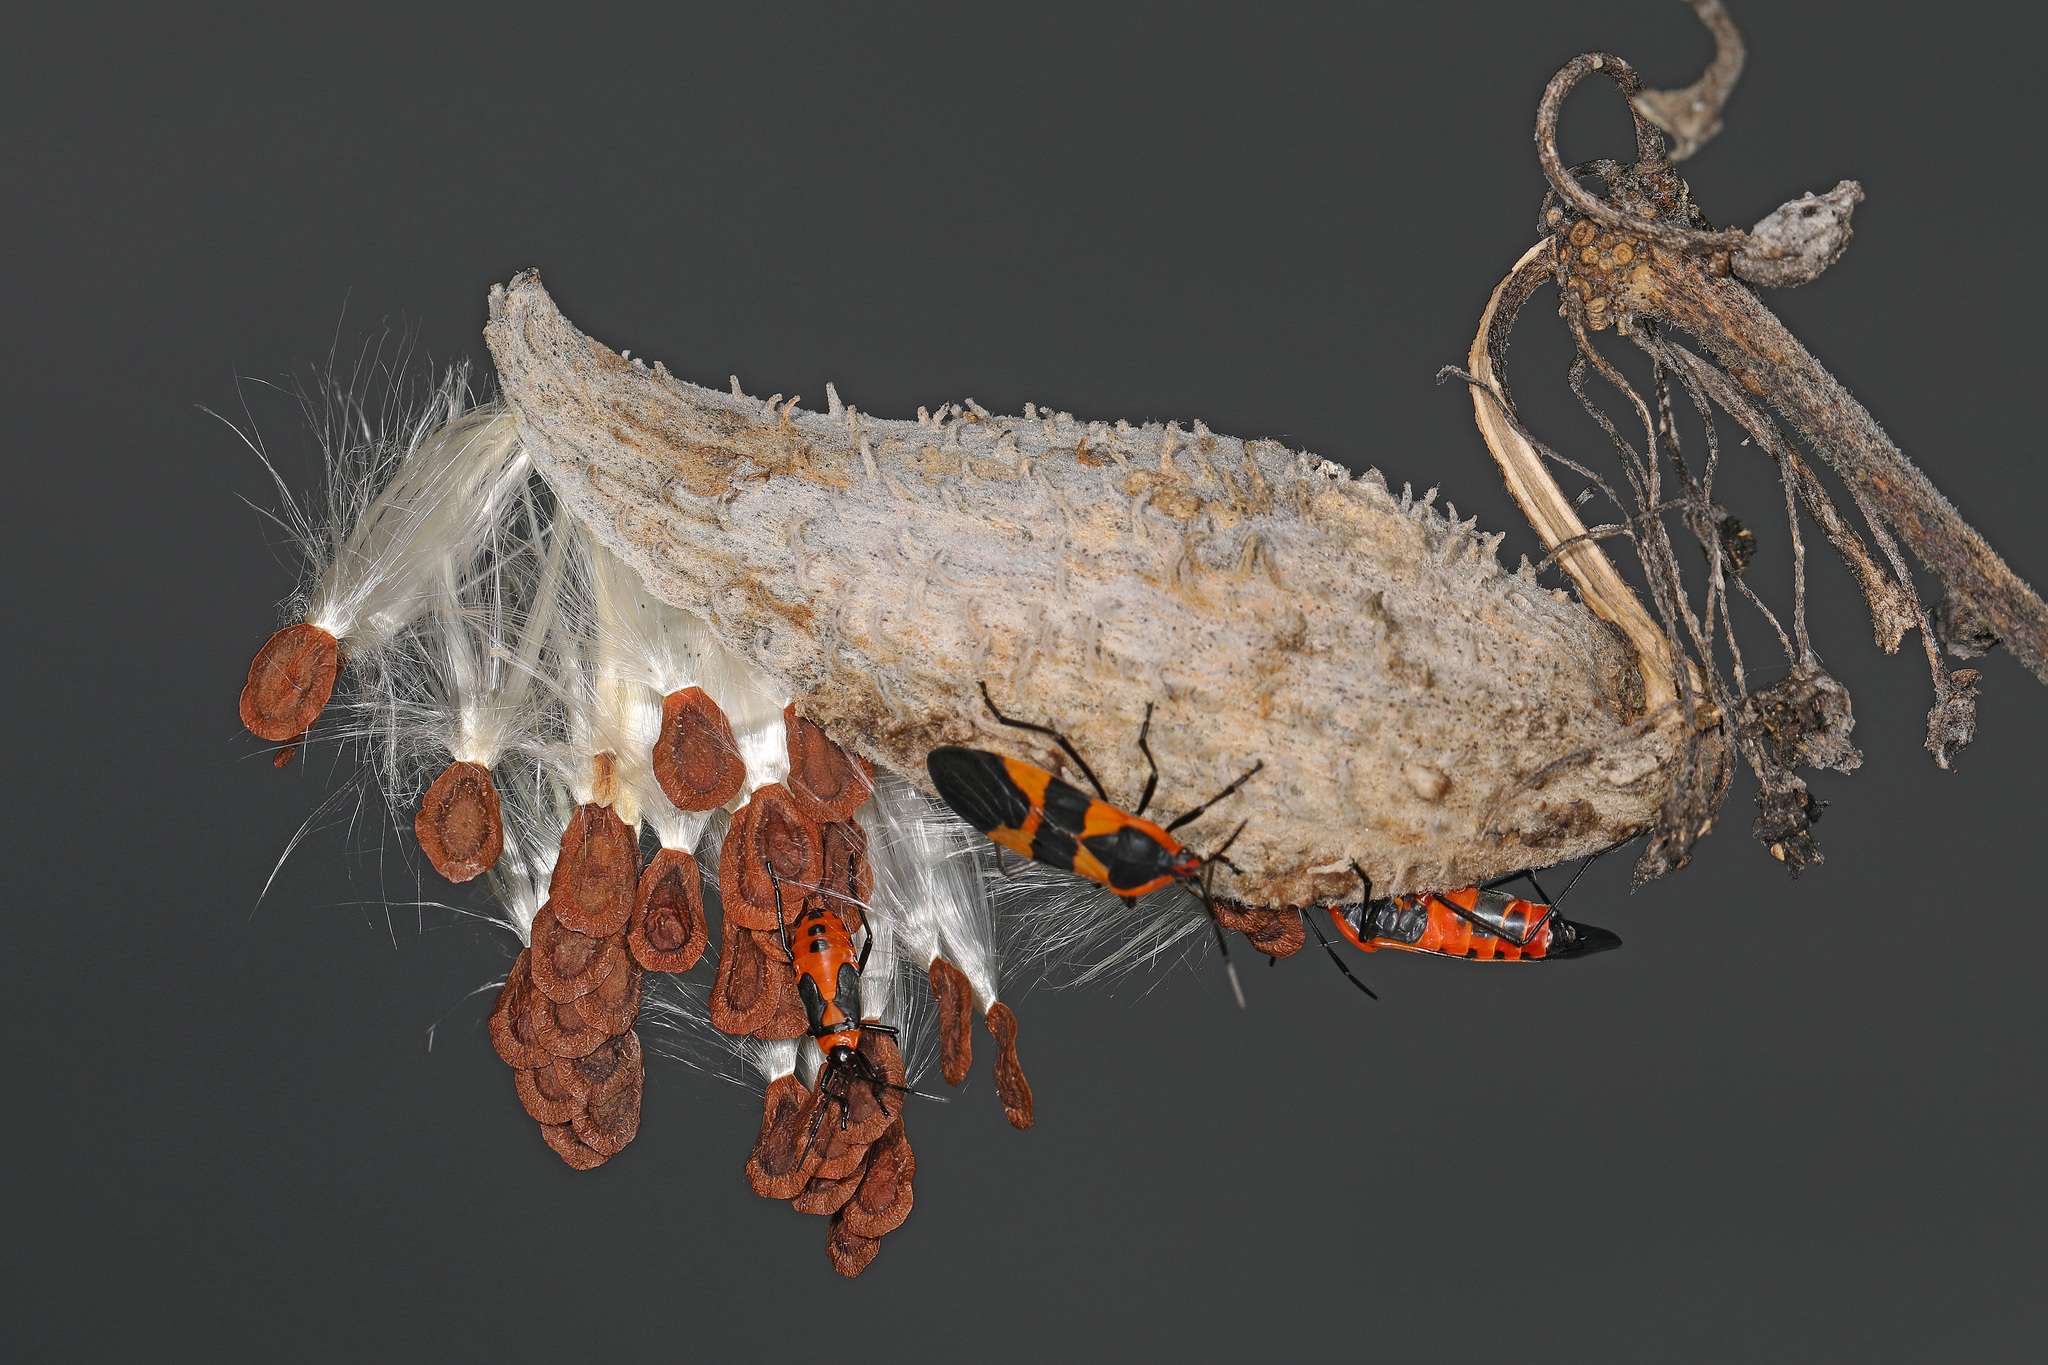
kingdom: Animalia
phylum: Arthropoda
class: Insecta
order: Hemiptera
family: Lygaeidae
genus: Oncopeltus
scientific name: Oncopeltus fasciatus
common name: Large milkweed bug
